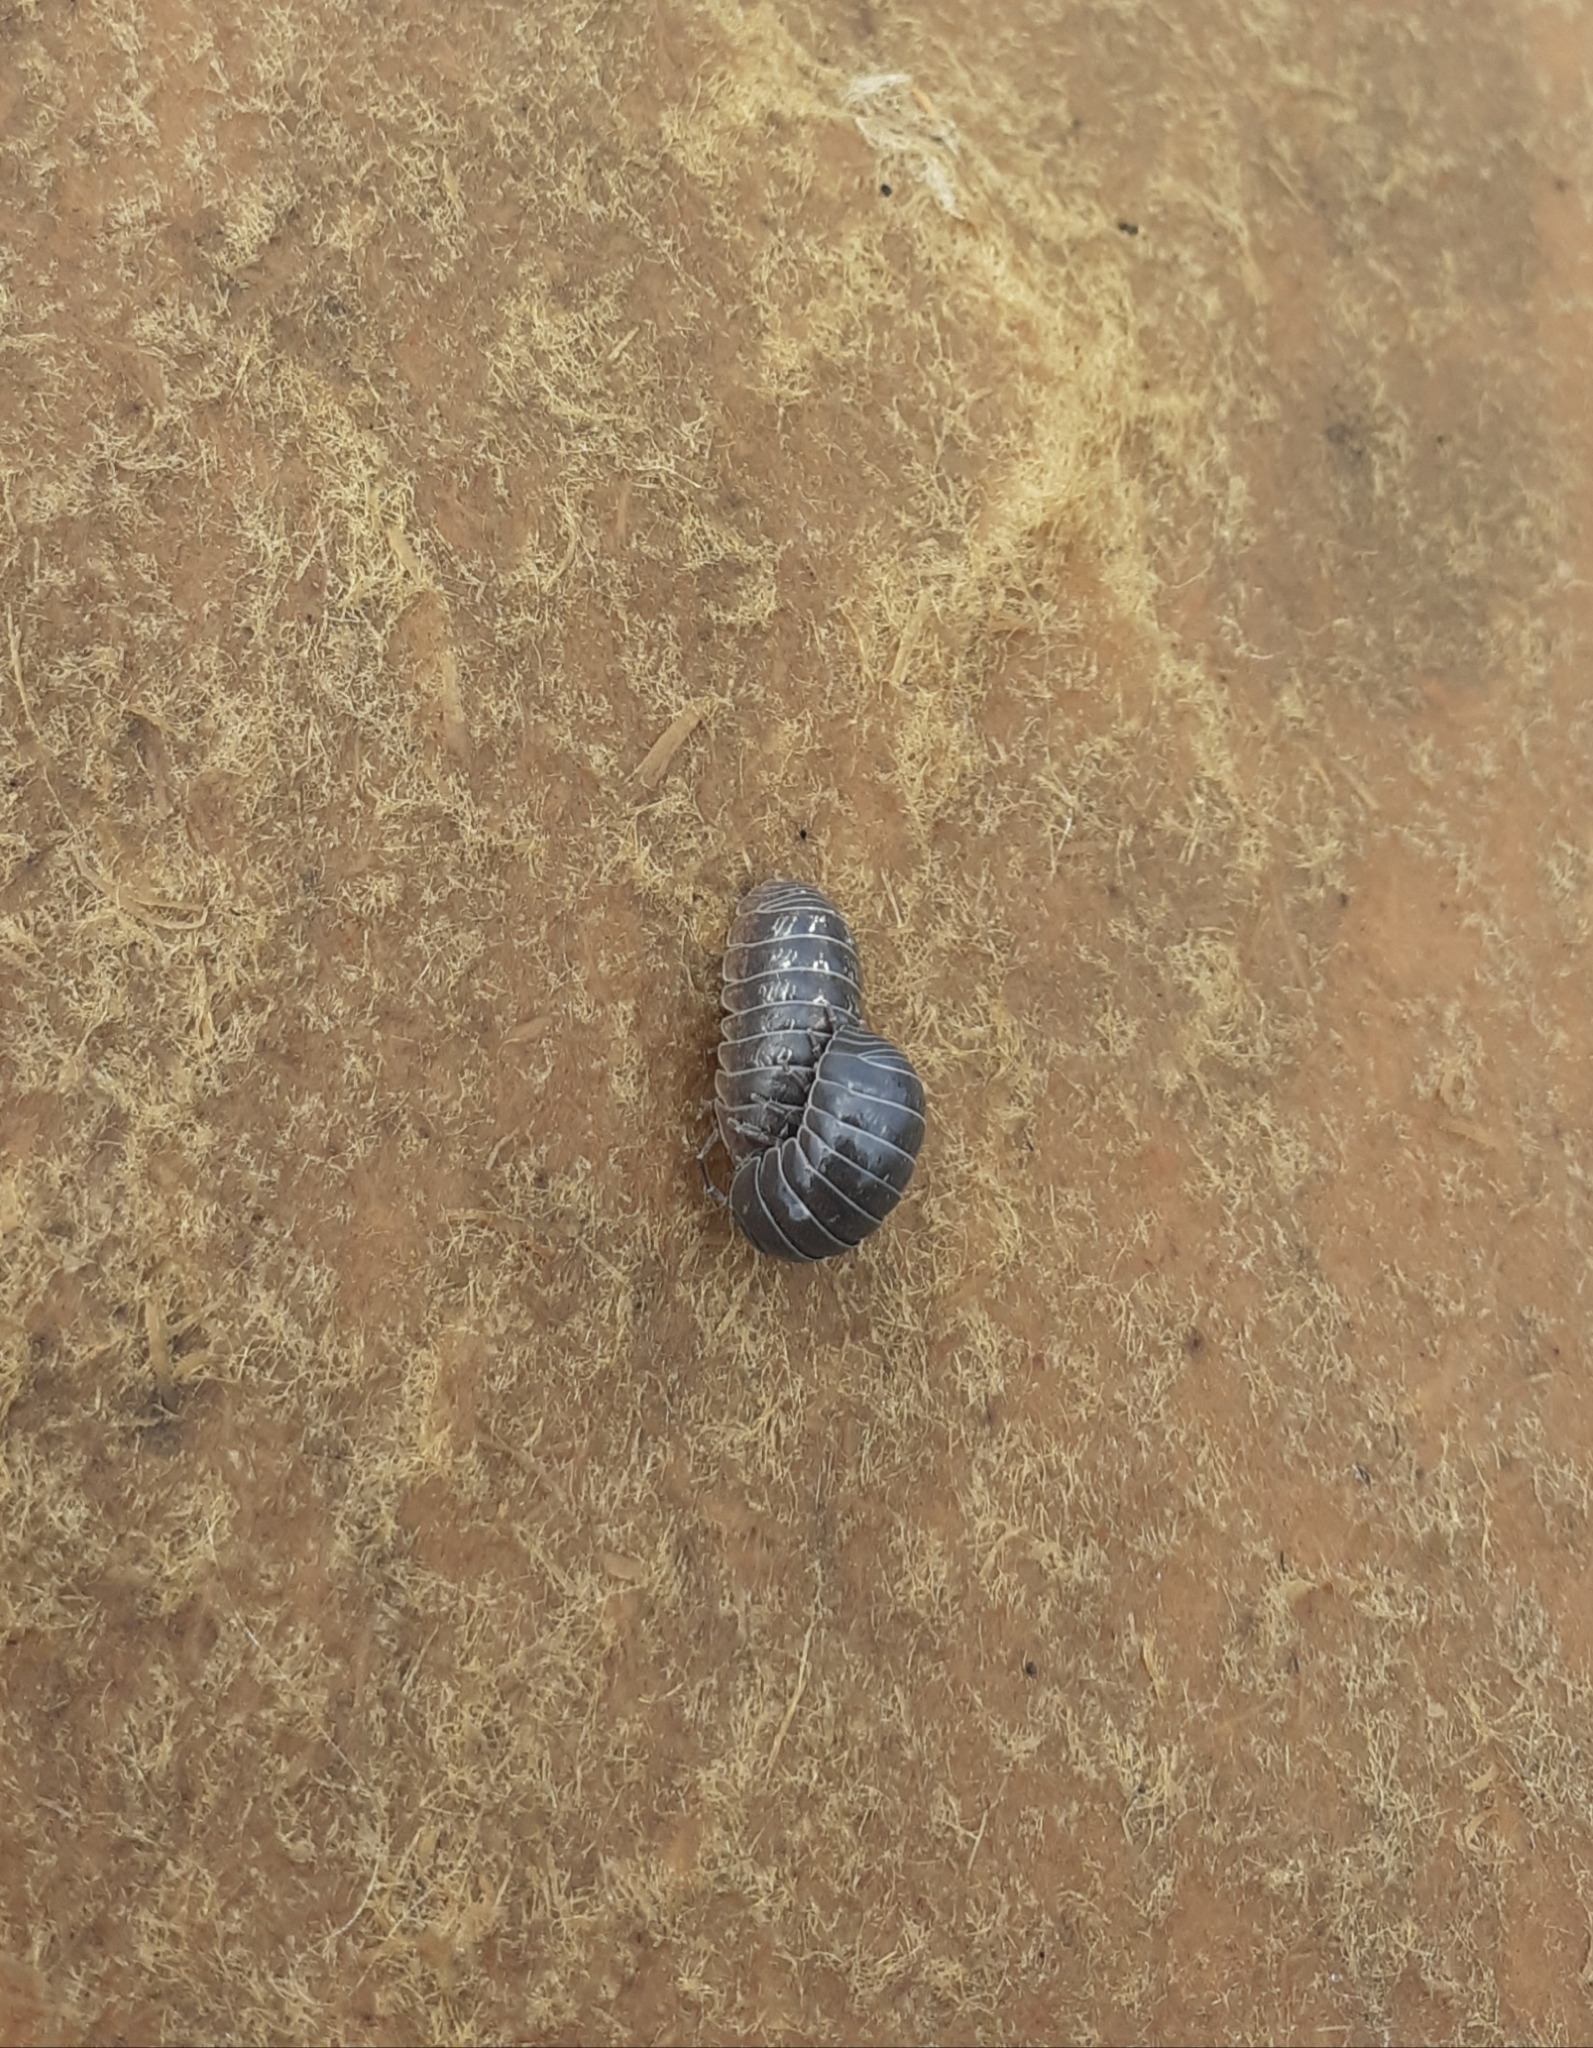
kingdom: Animalia
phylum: Arthropoda
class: Malacostraca
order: Isopoda
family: Armadillidiidae
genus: Armadillidium
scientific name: Armadillidium vulgare
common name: Common pill woodlouse
